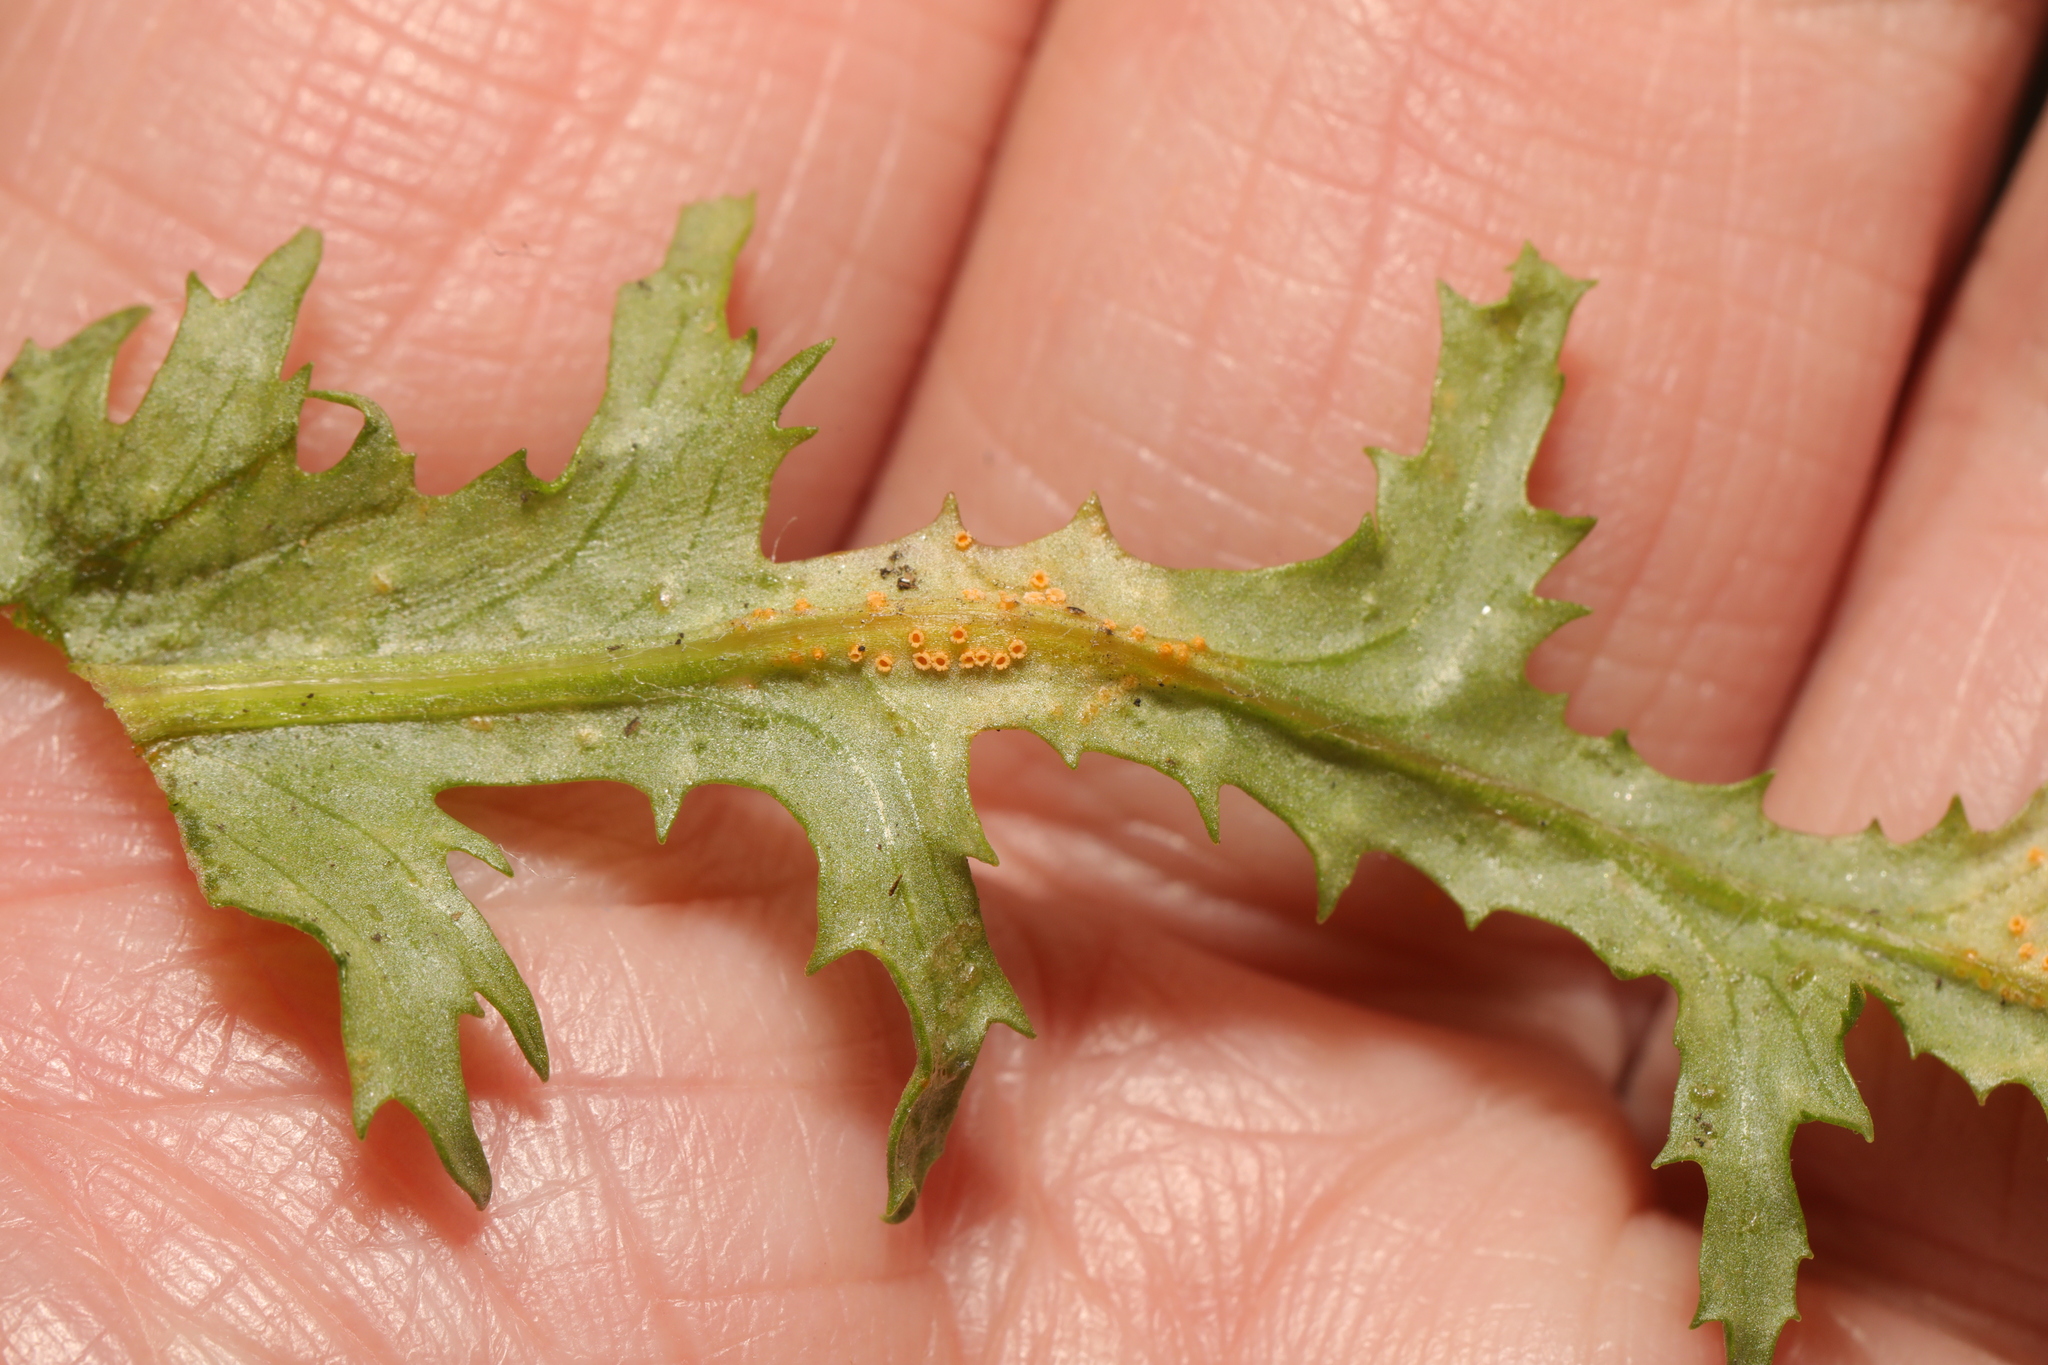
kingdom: Fungi
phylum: Basidiomycota
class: Pucciniomycetes
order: Pucciniales
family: Pucciniaceae
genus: Puccinia
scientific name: Puccinia lagenophorae
